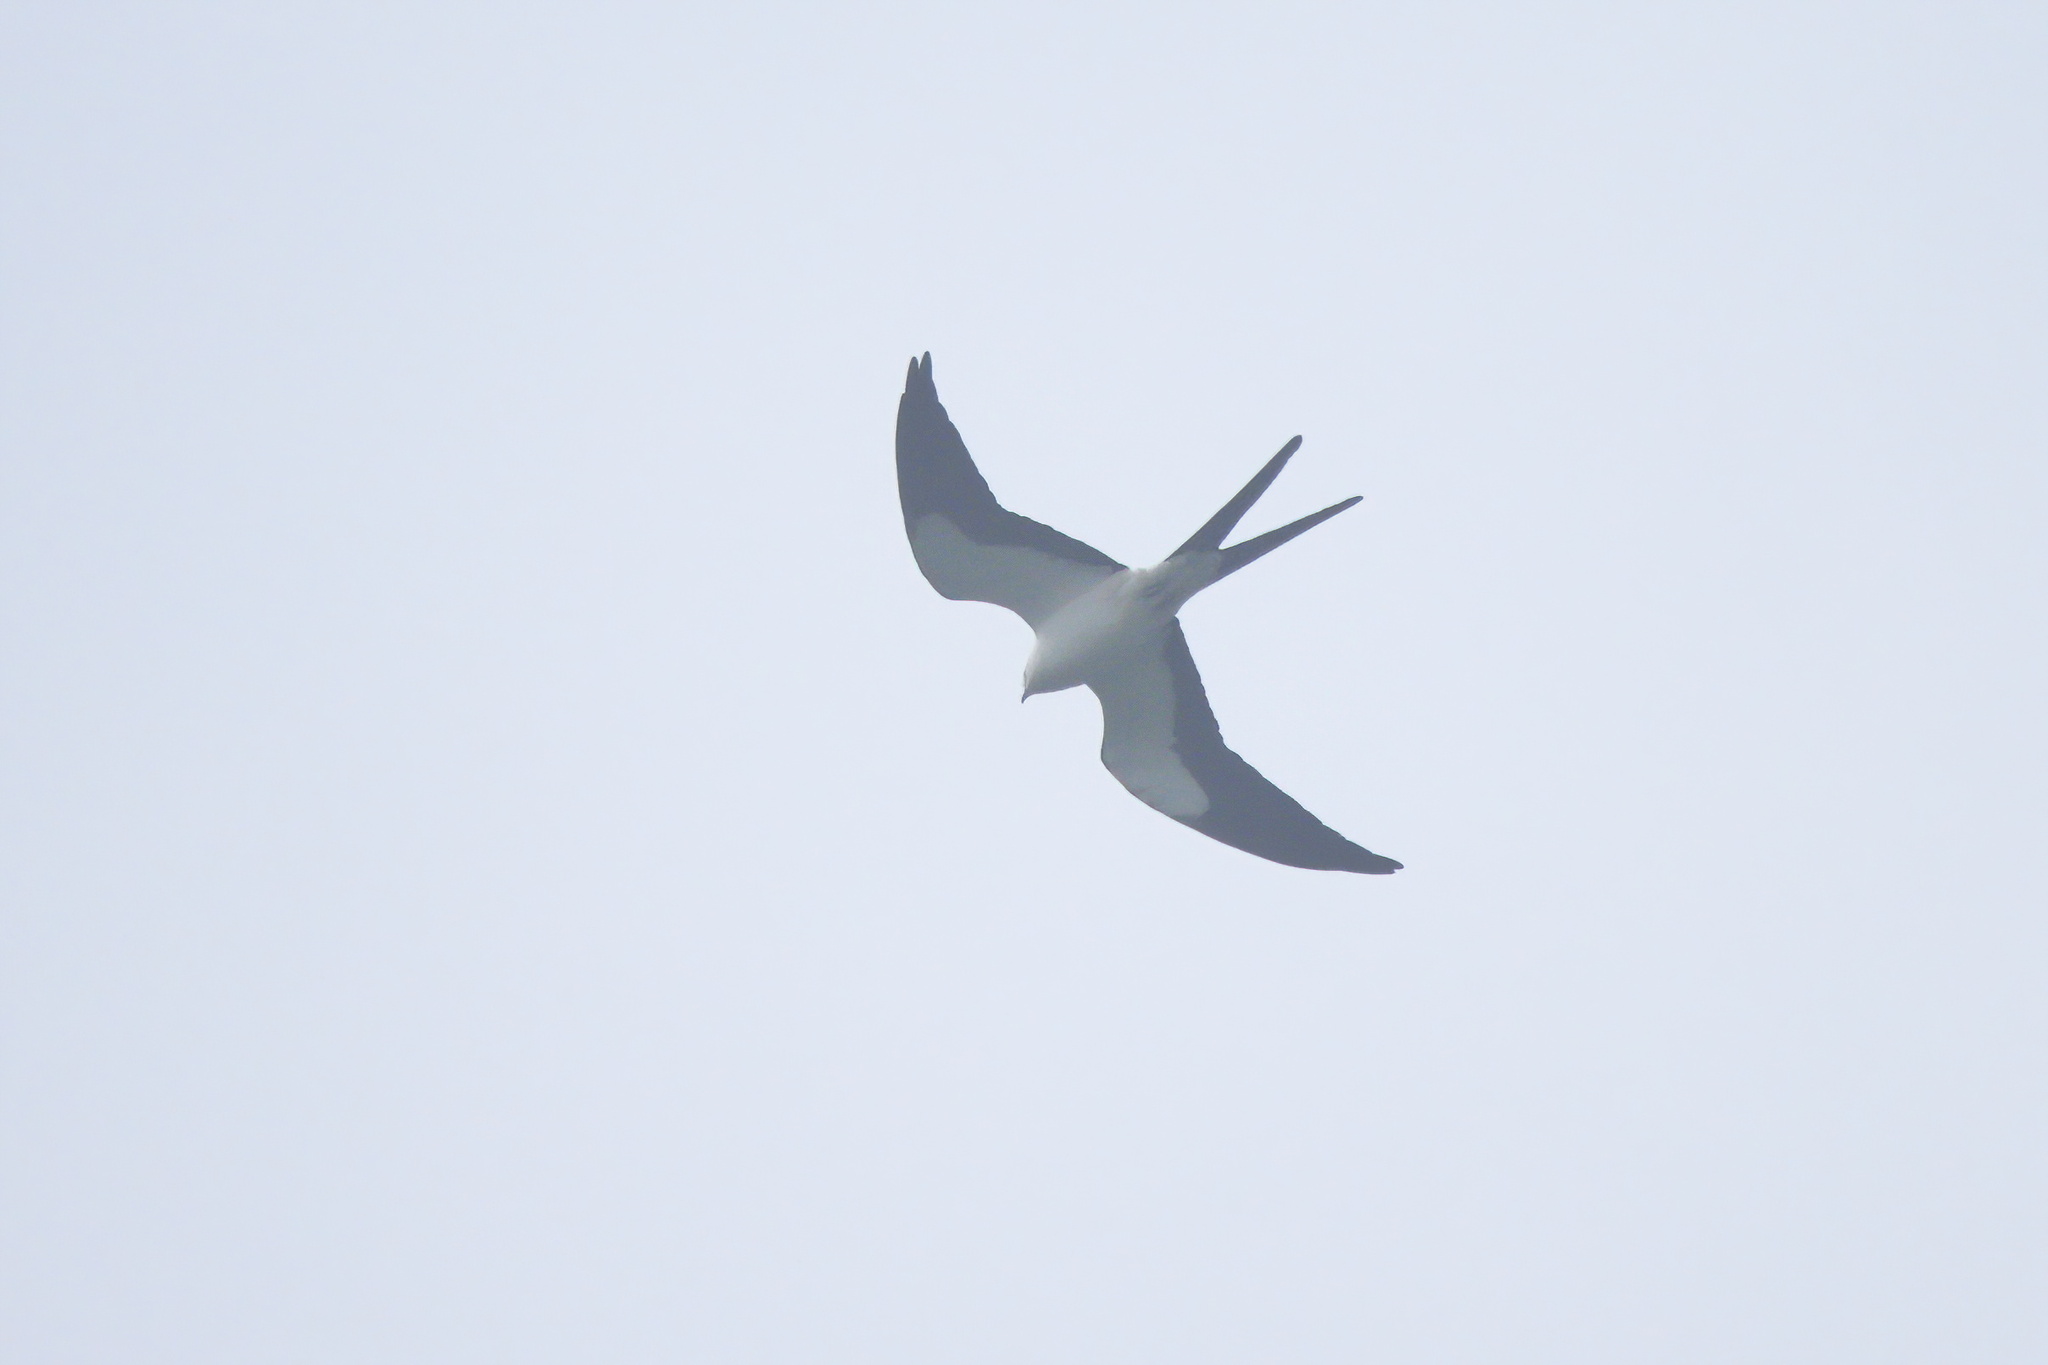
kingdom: Animalia
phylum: Chordata
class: Aves
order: Accipitriformes
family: Accipitridae
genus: Elanoides
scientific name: Elanoides forficatus
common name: Swallow-tailed kite
